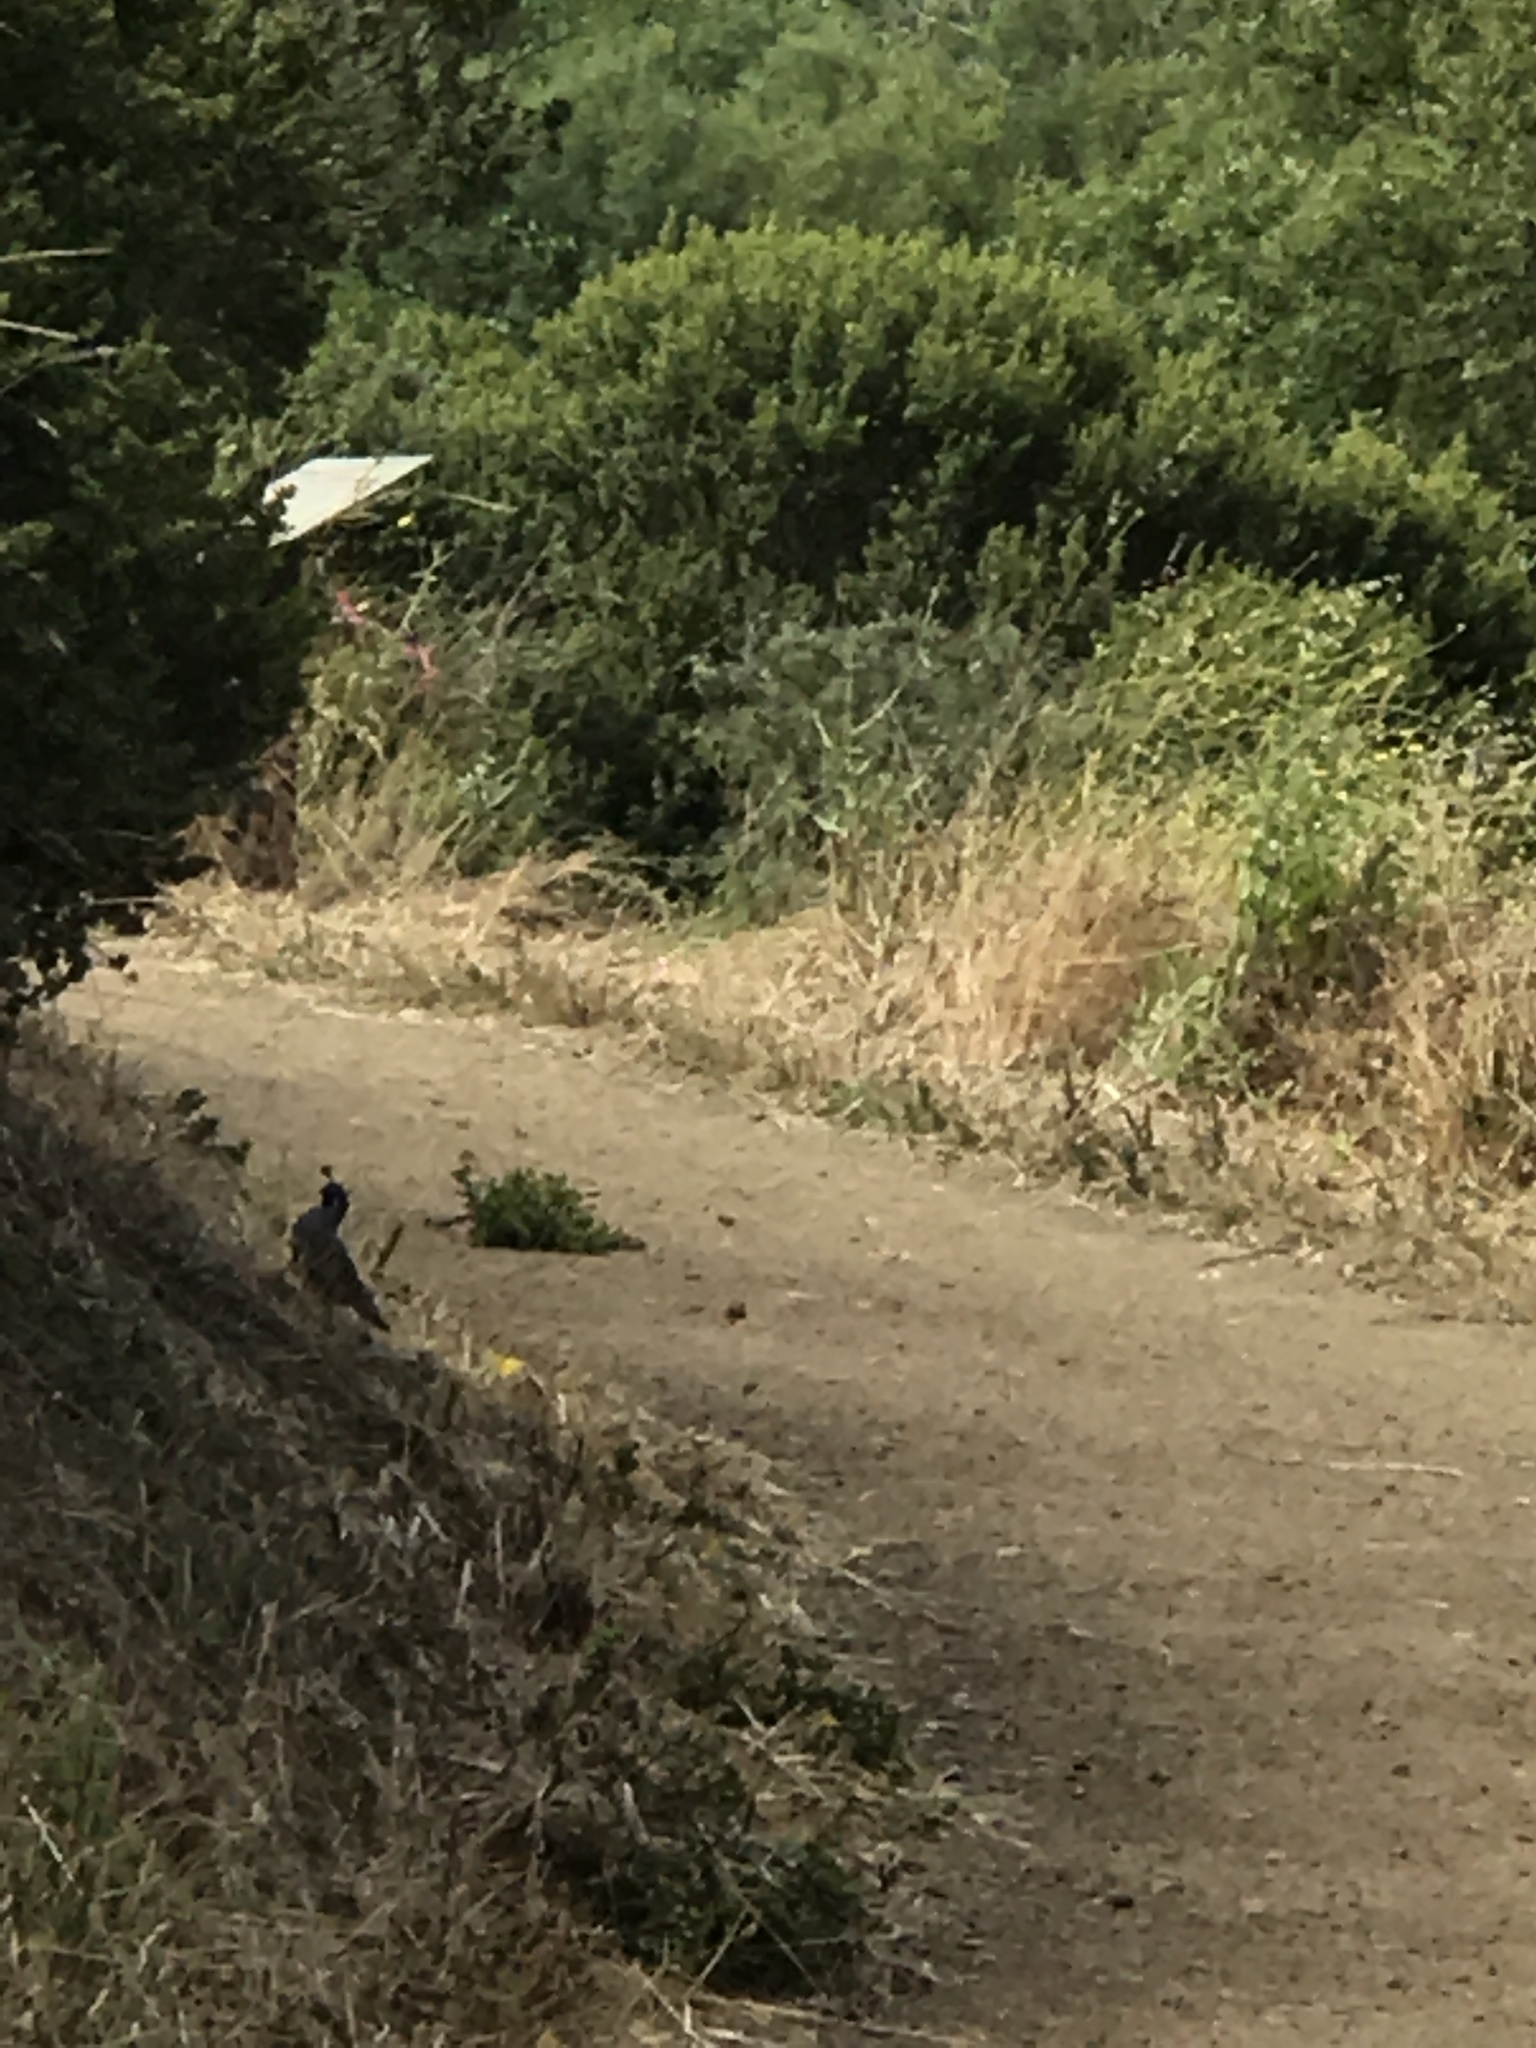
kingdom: Animalia
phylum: Chordata
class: Aves
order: Galliformes
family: Odontophoridae
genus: Callipepla
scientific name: Callipepla californica
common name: California quail
